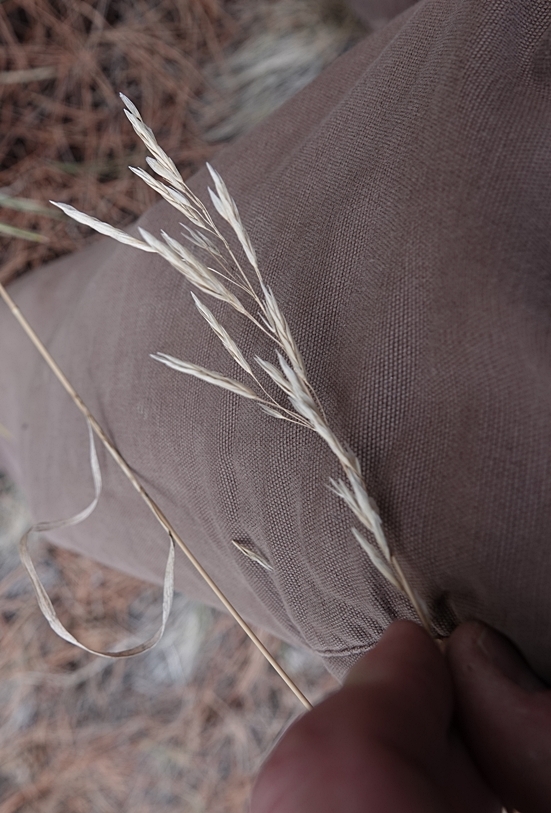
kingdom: Plantae
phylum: Tracheophyta
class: Liliopsida
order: Poales
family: Poaceae
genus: Bromus
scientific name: Bromus inermis
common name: Smooth brome
